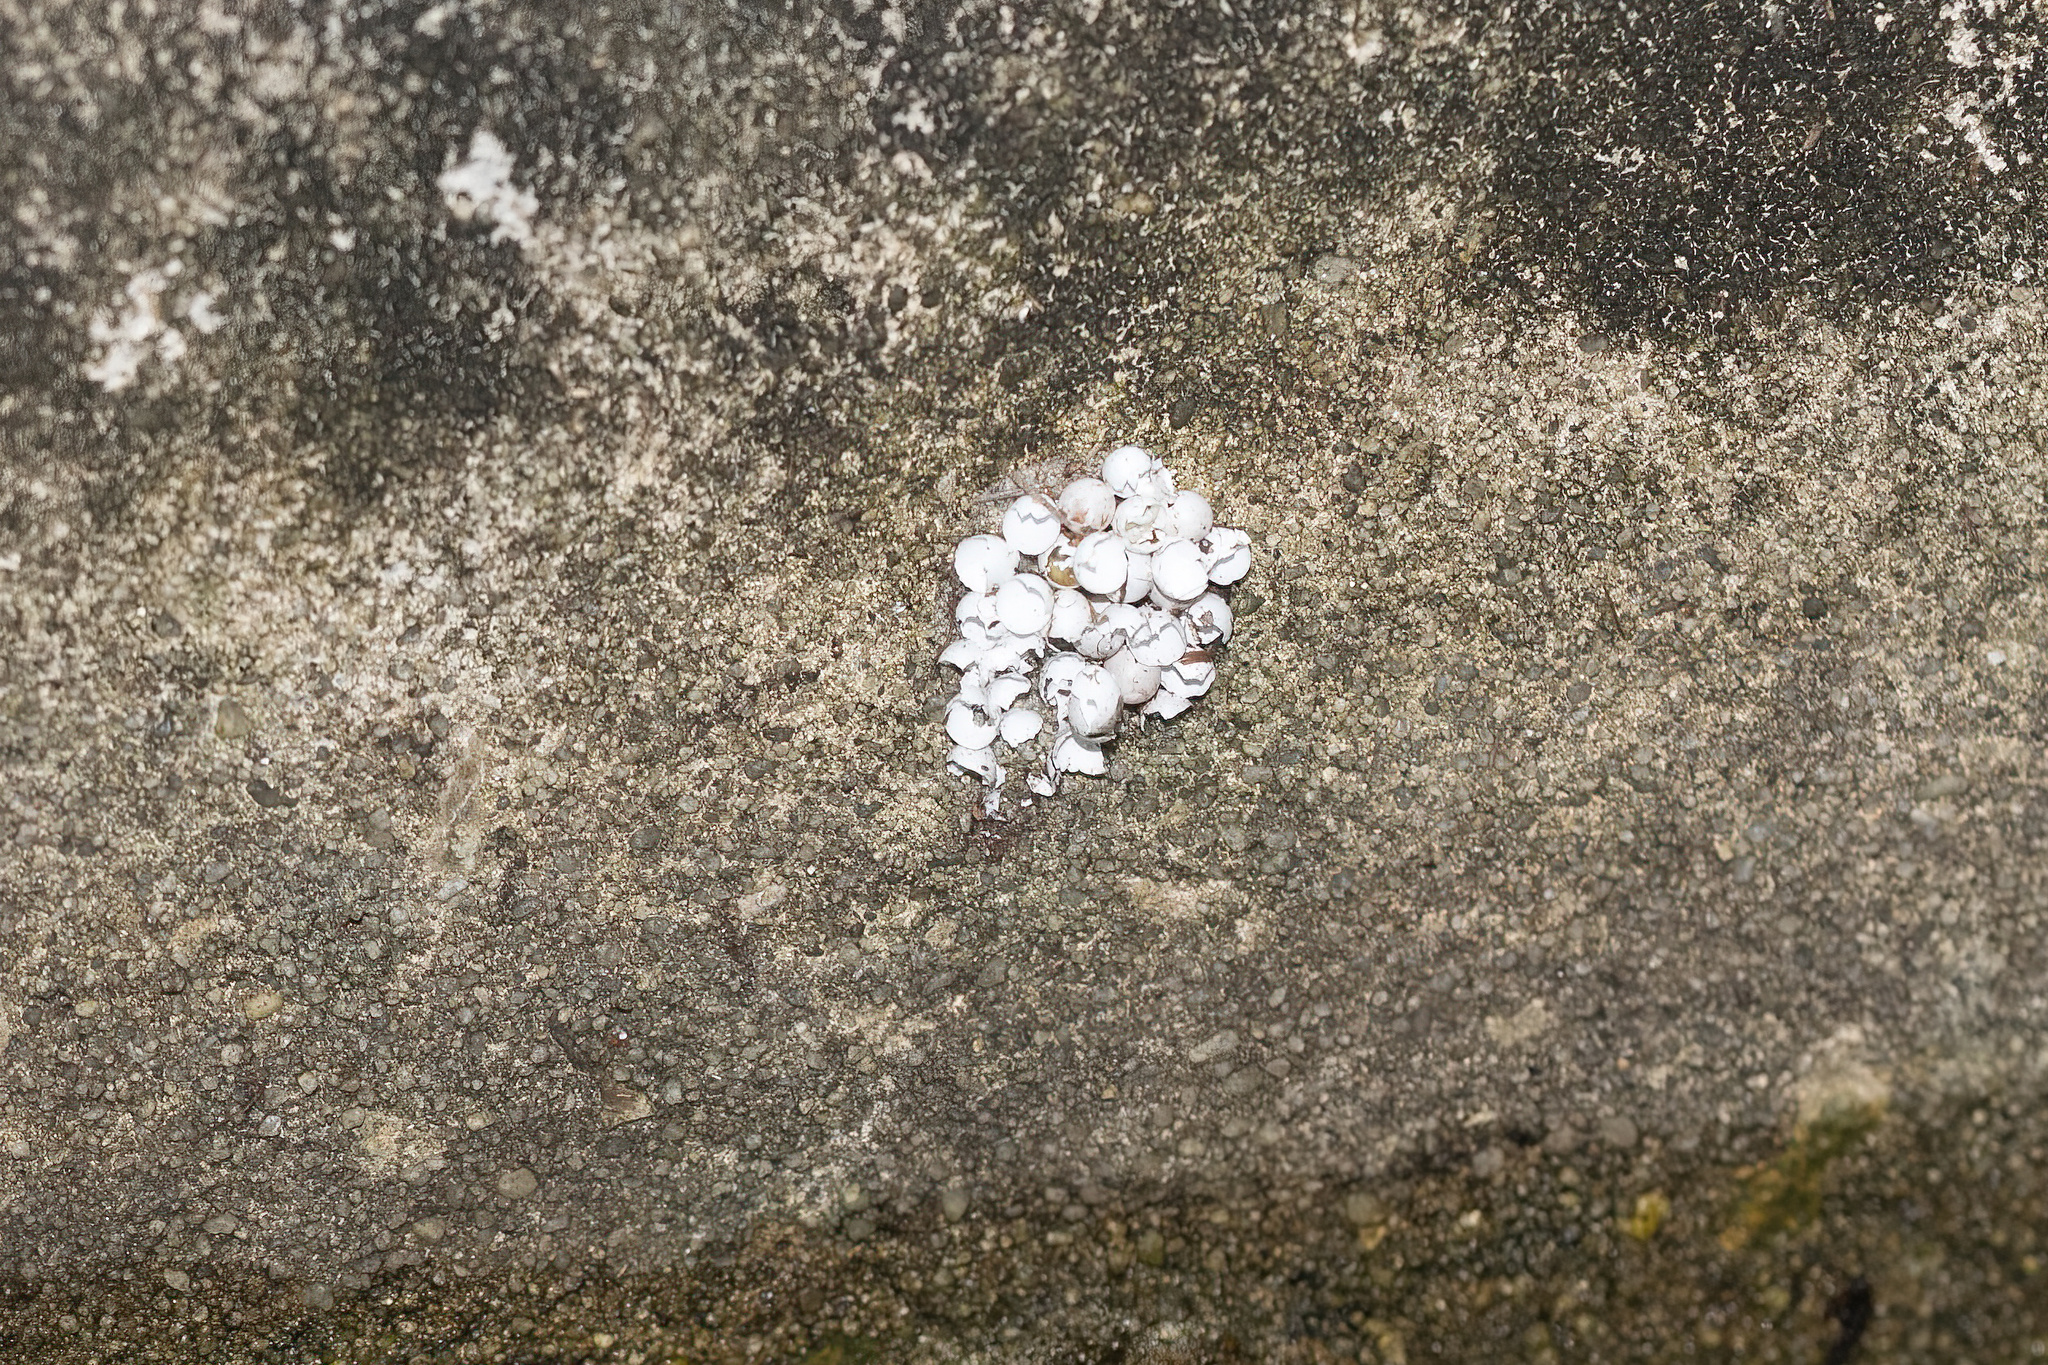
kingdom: Animalia
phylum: Mollusca
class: Gastropoda
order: Architaenioglossa
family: Ampullariidae
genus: Pomacea
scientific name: Pomacea paludosa
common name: Florida applesnail
